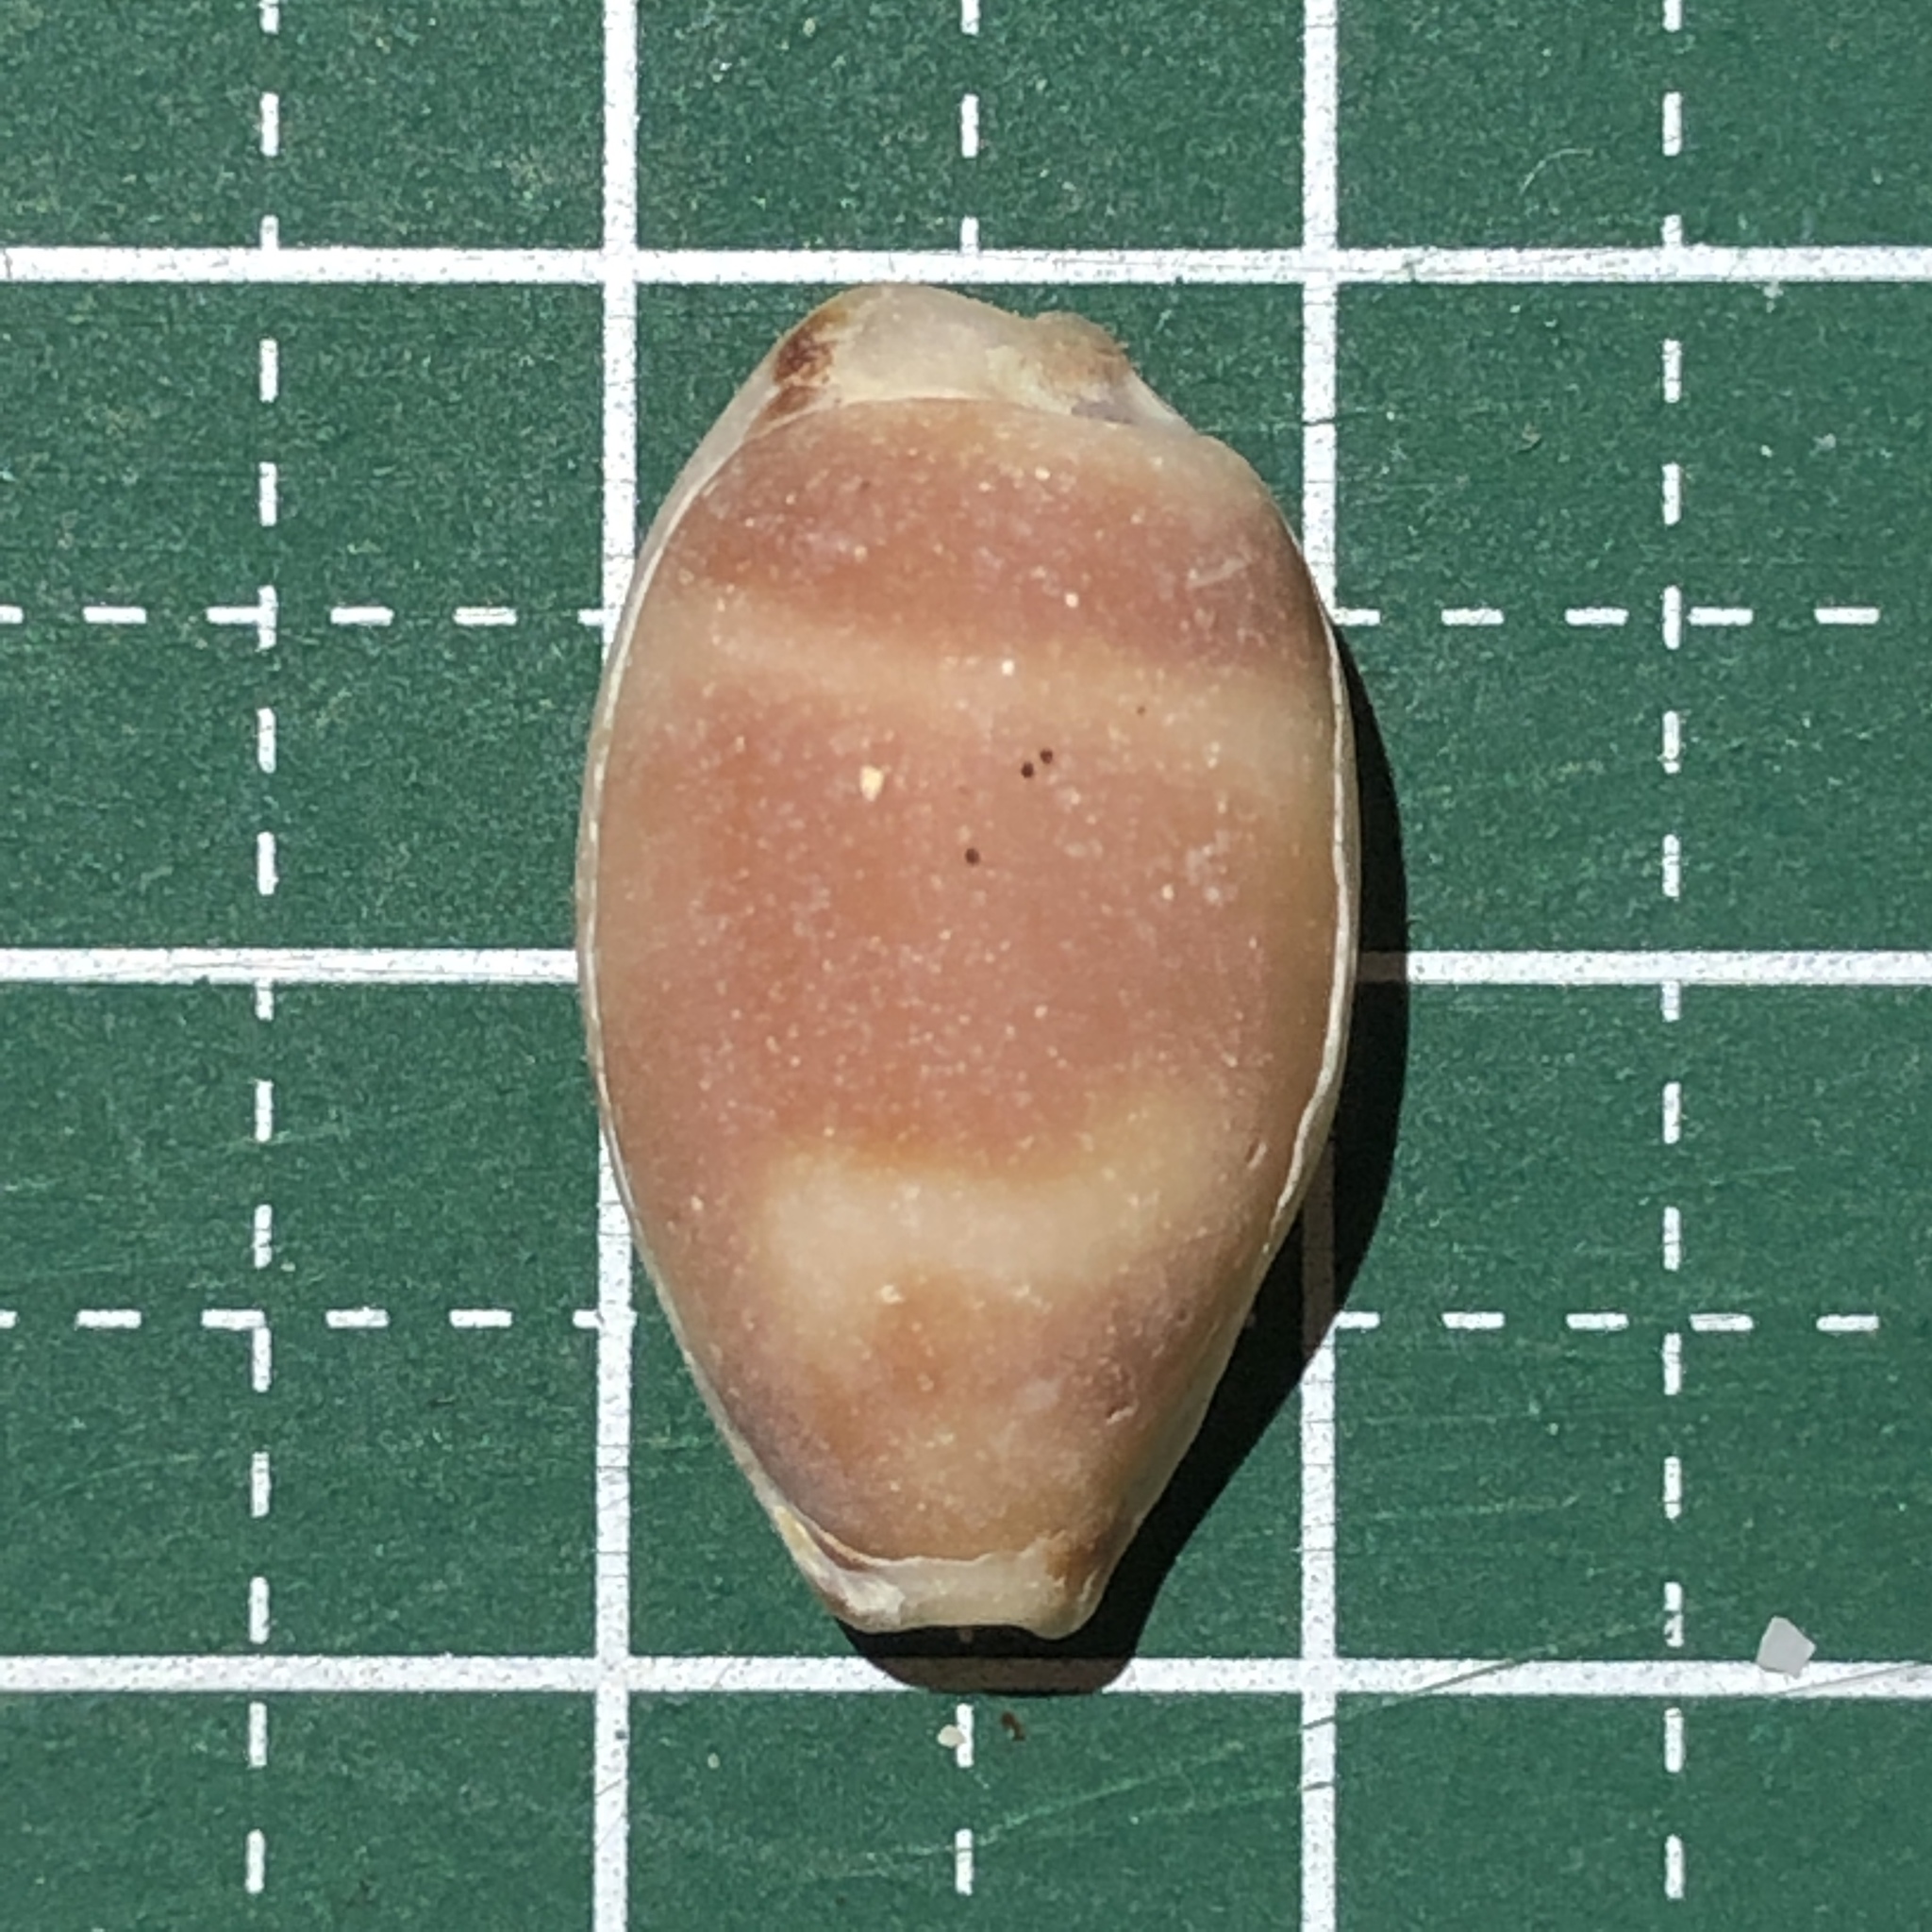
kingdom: Animalia
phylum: Mollusca
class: Gastropoda
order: Littorinimorpha
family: Cypraeidae
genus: Bistolida
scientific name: Bistolida hirundo
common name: Cowrie
